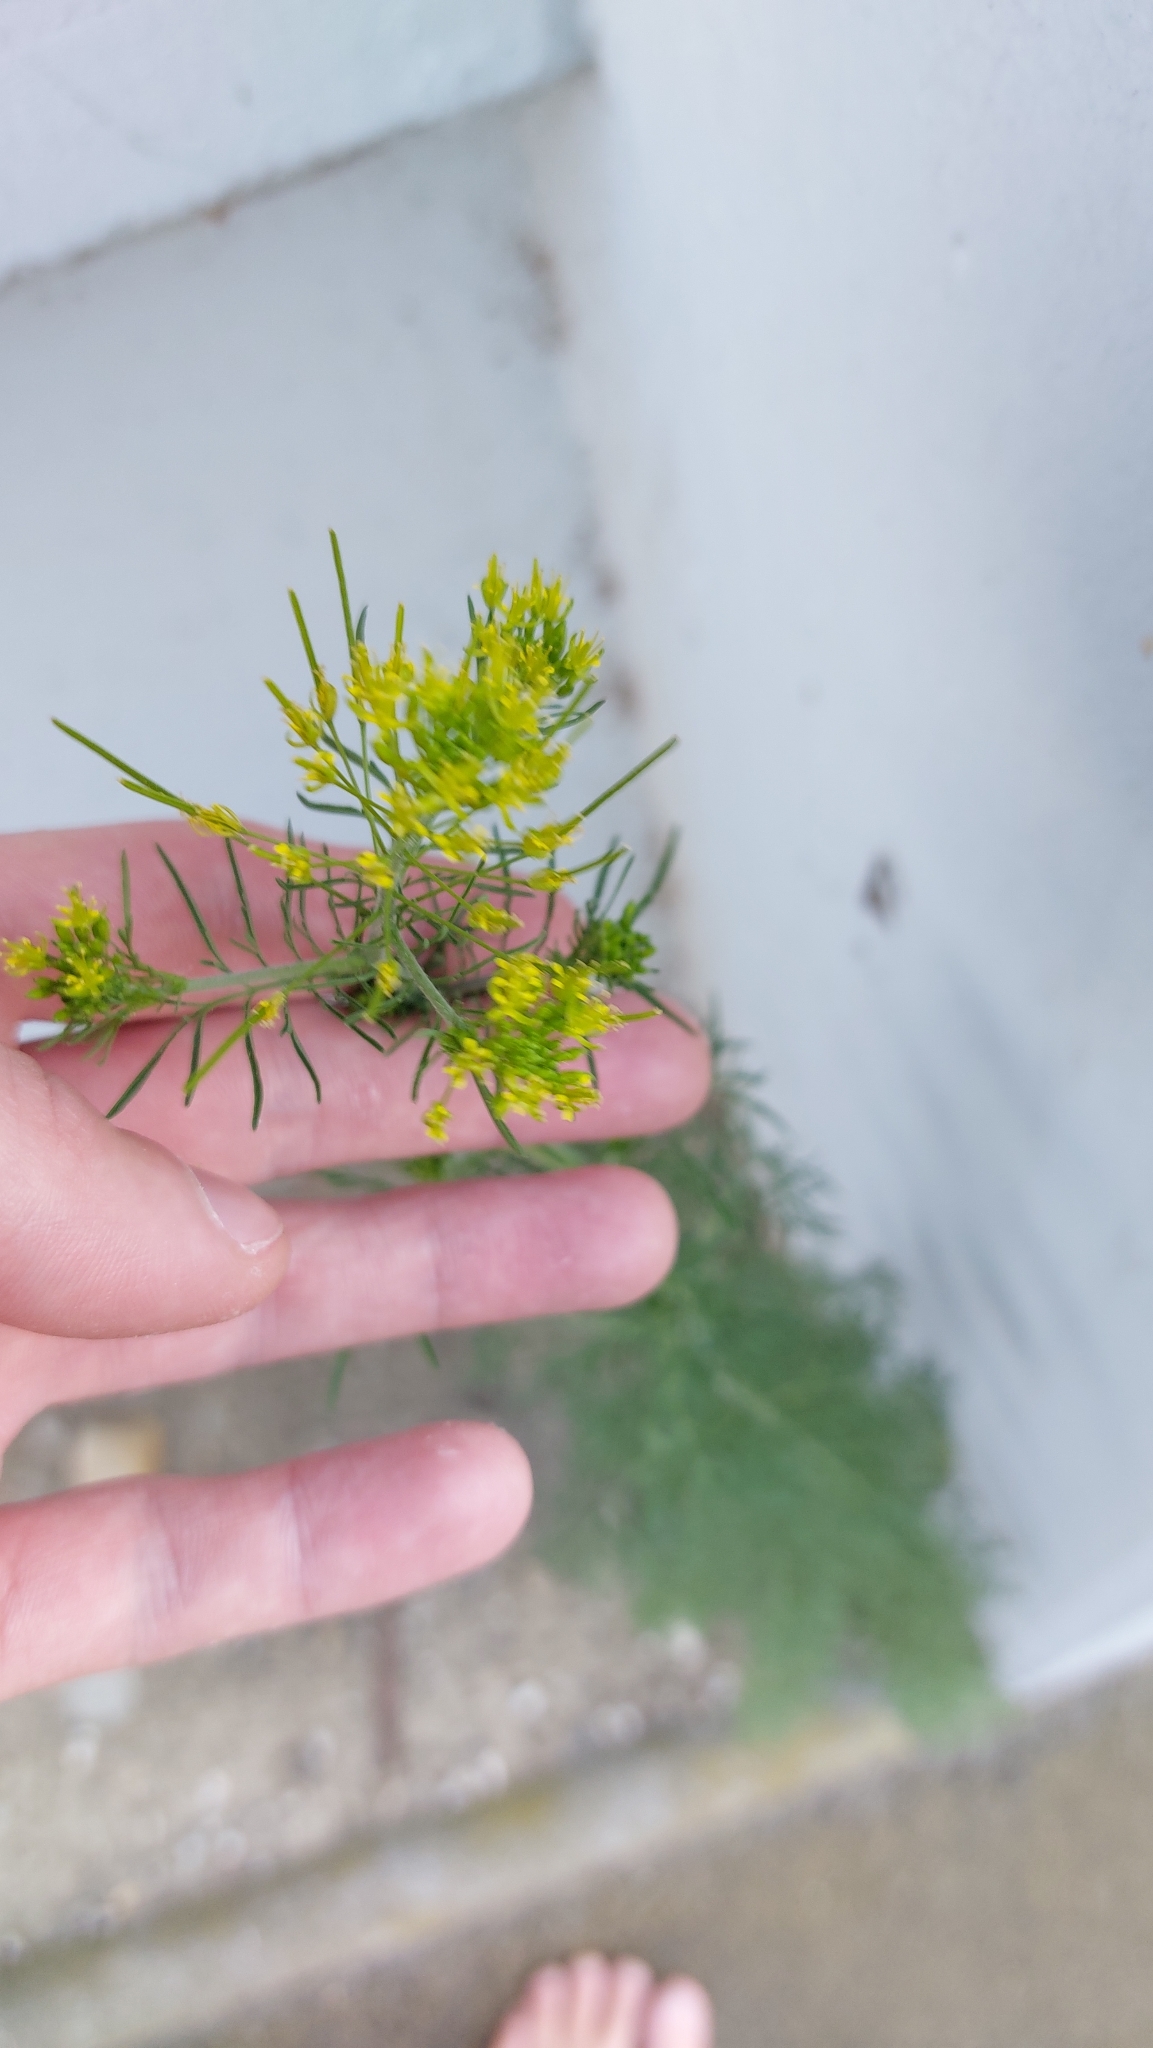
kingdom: Plantae
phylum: Tracheophyta
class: Magnoliopsida
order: Brassicales
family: Brassicaceae
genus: Descurainia
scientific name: Descurainia sophia
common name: Flixweed
